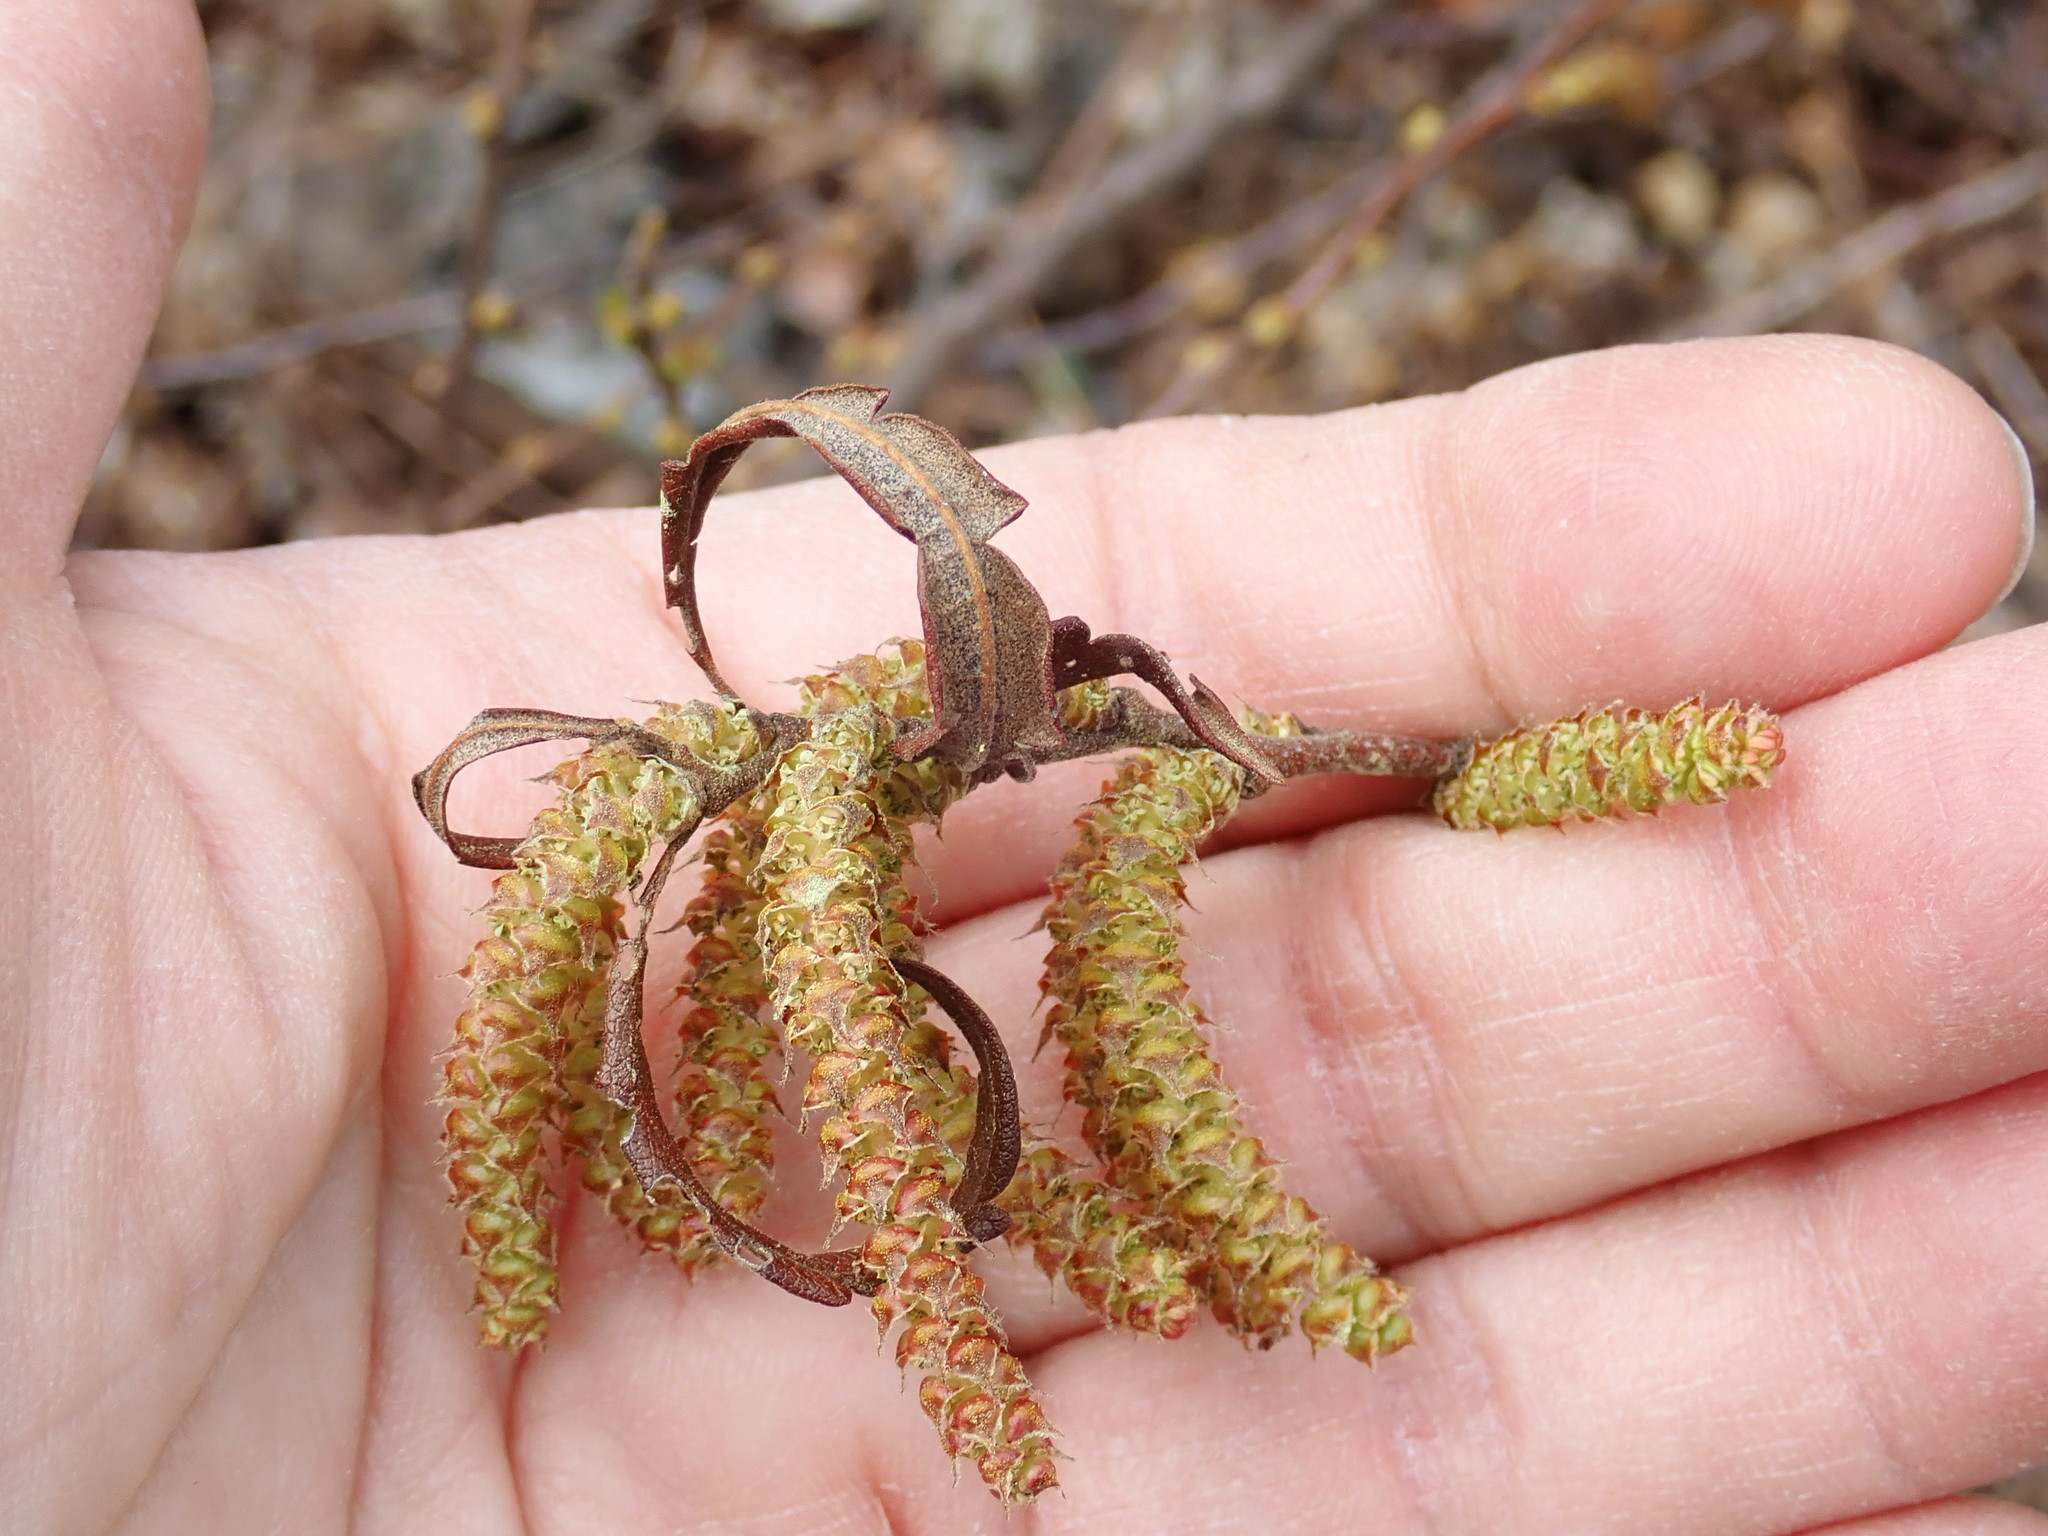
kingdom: Plantae
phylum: Tracheophyta
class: Magnoliopsida
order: Fagales
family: Myricaceae
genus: Comptonia
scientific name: Comptonia peregrina
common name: Sweet-fern
